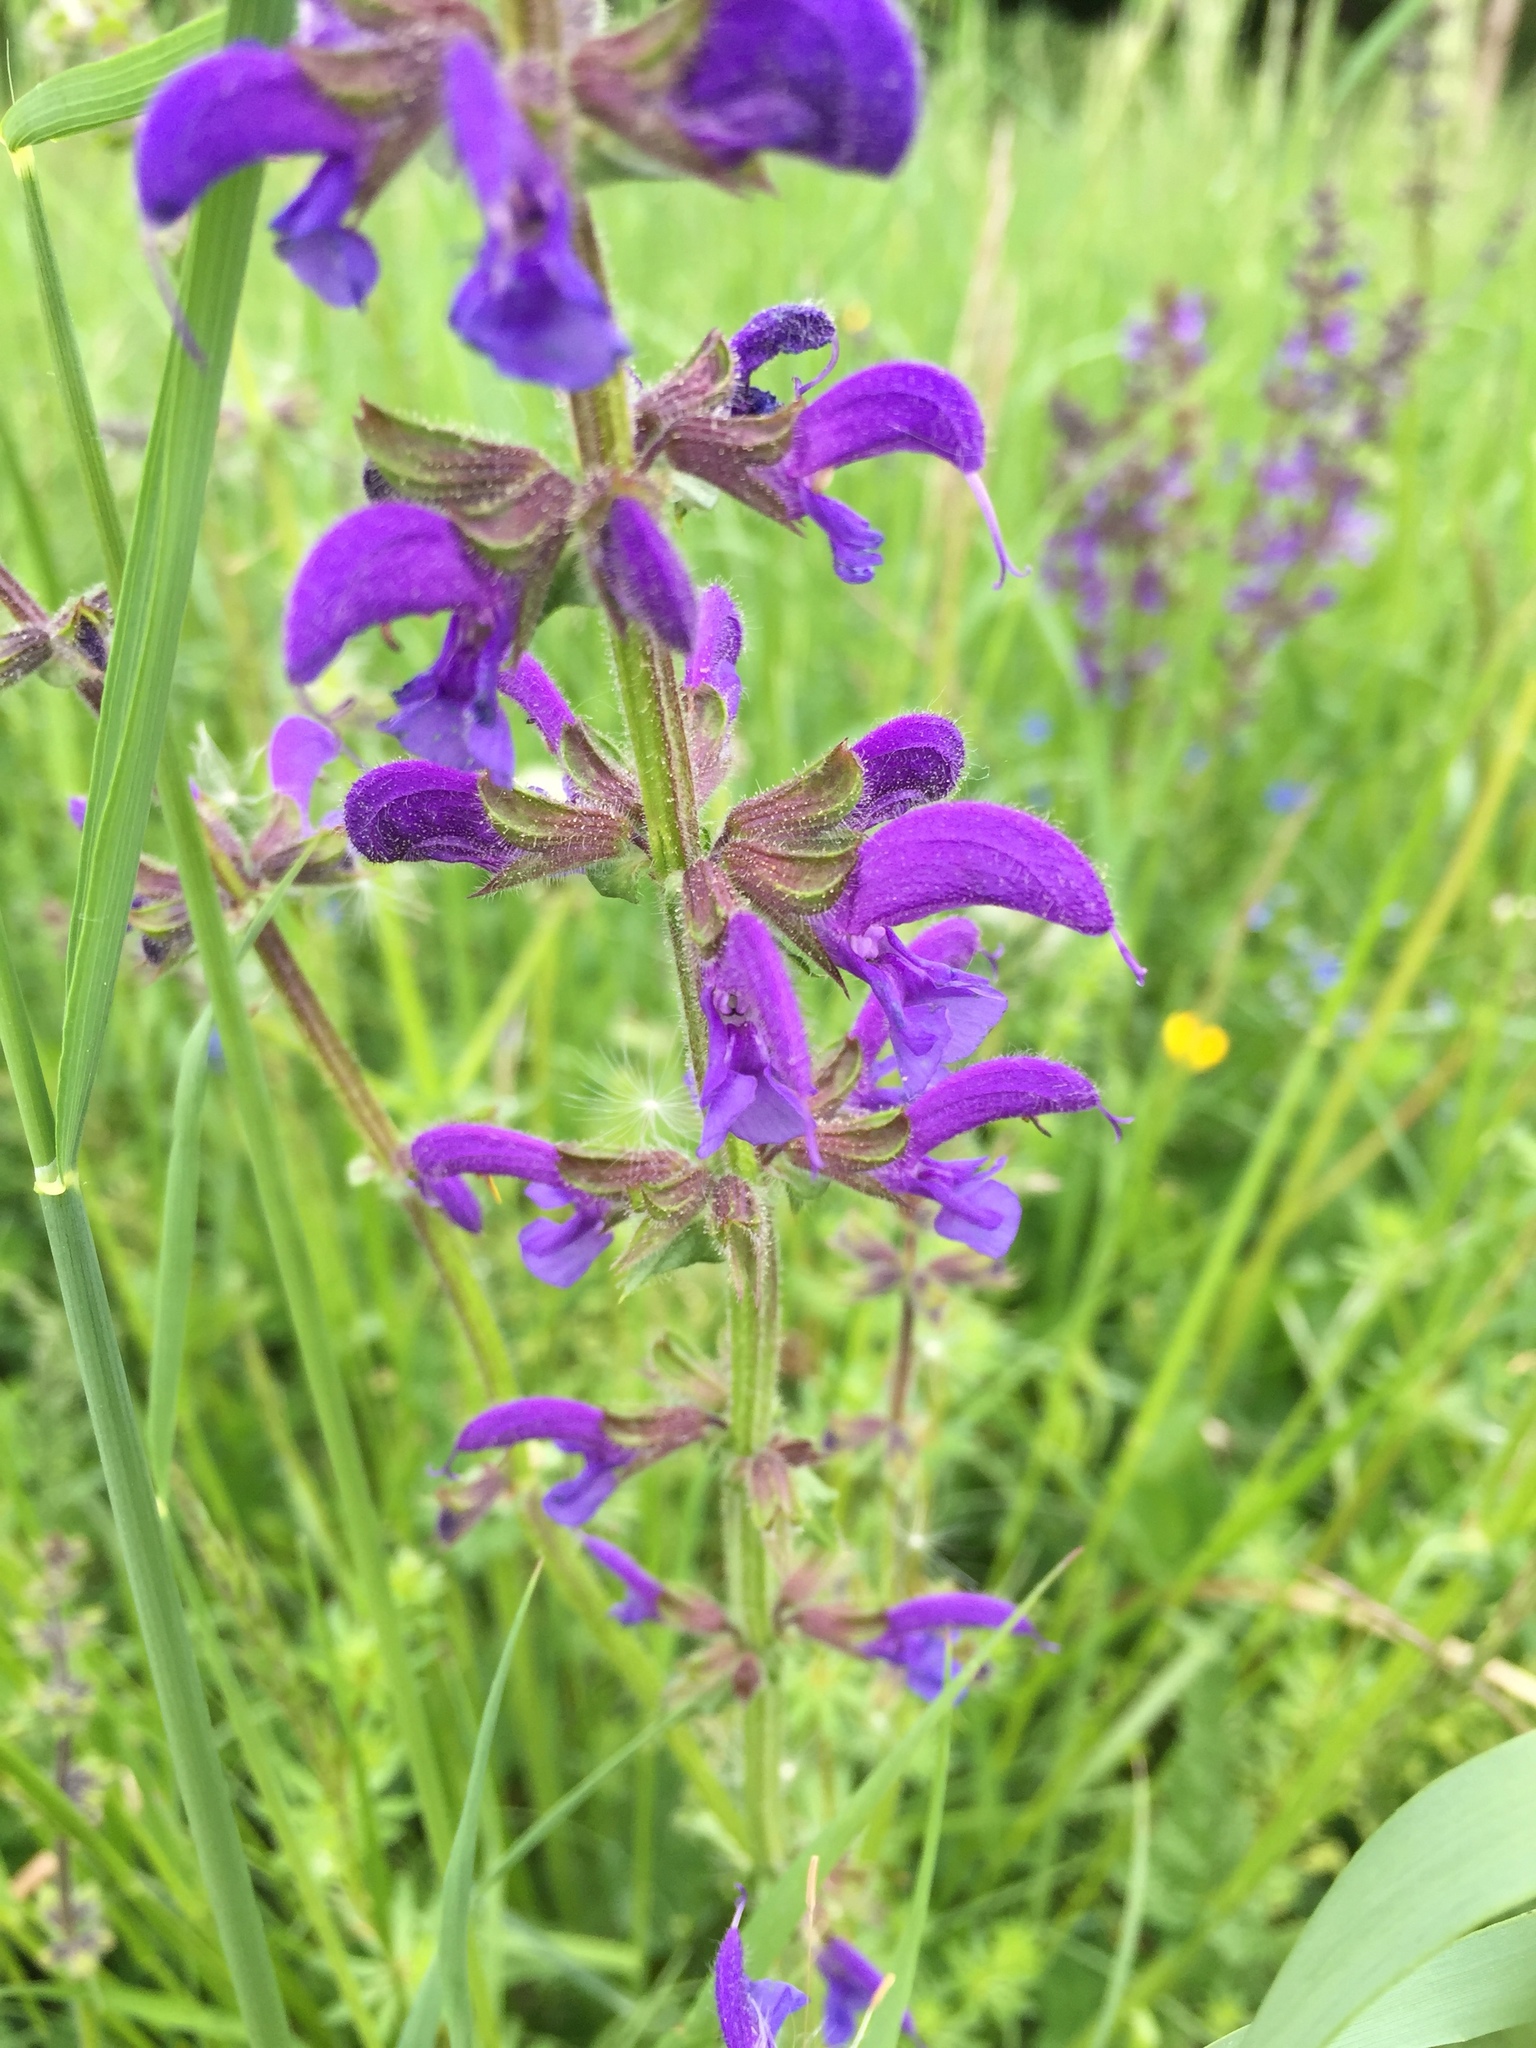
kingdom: Plantae
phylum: Tracheophyta
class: Magnoliopsida
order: Lamiales
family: Lamiaceae
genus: Salvia
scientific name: Salvia pratensis
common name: Meadow sage
